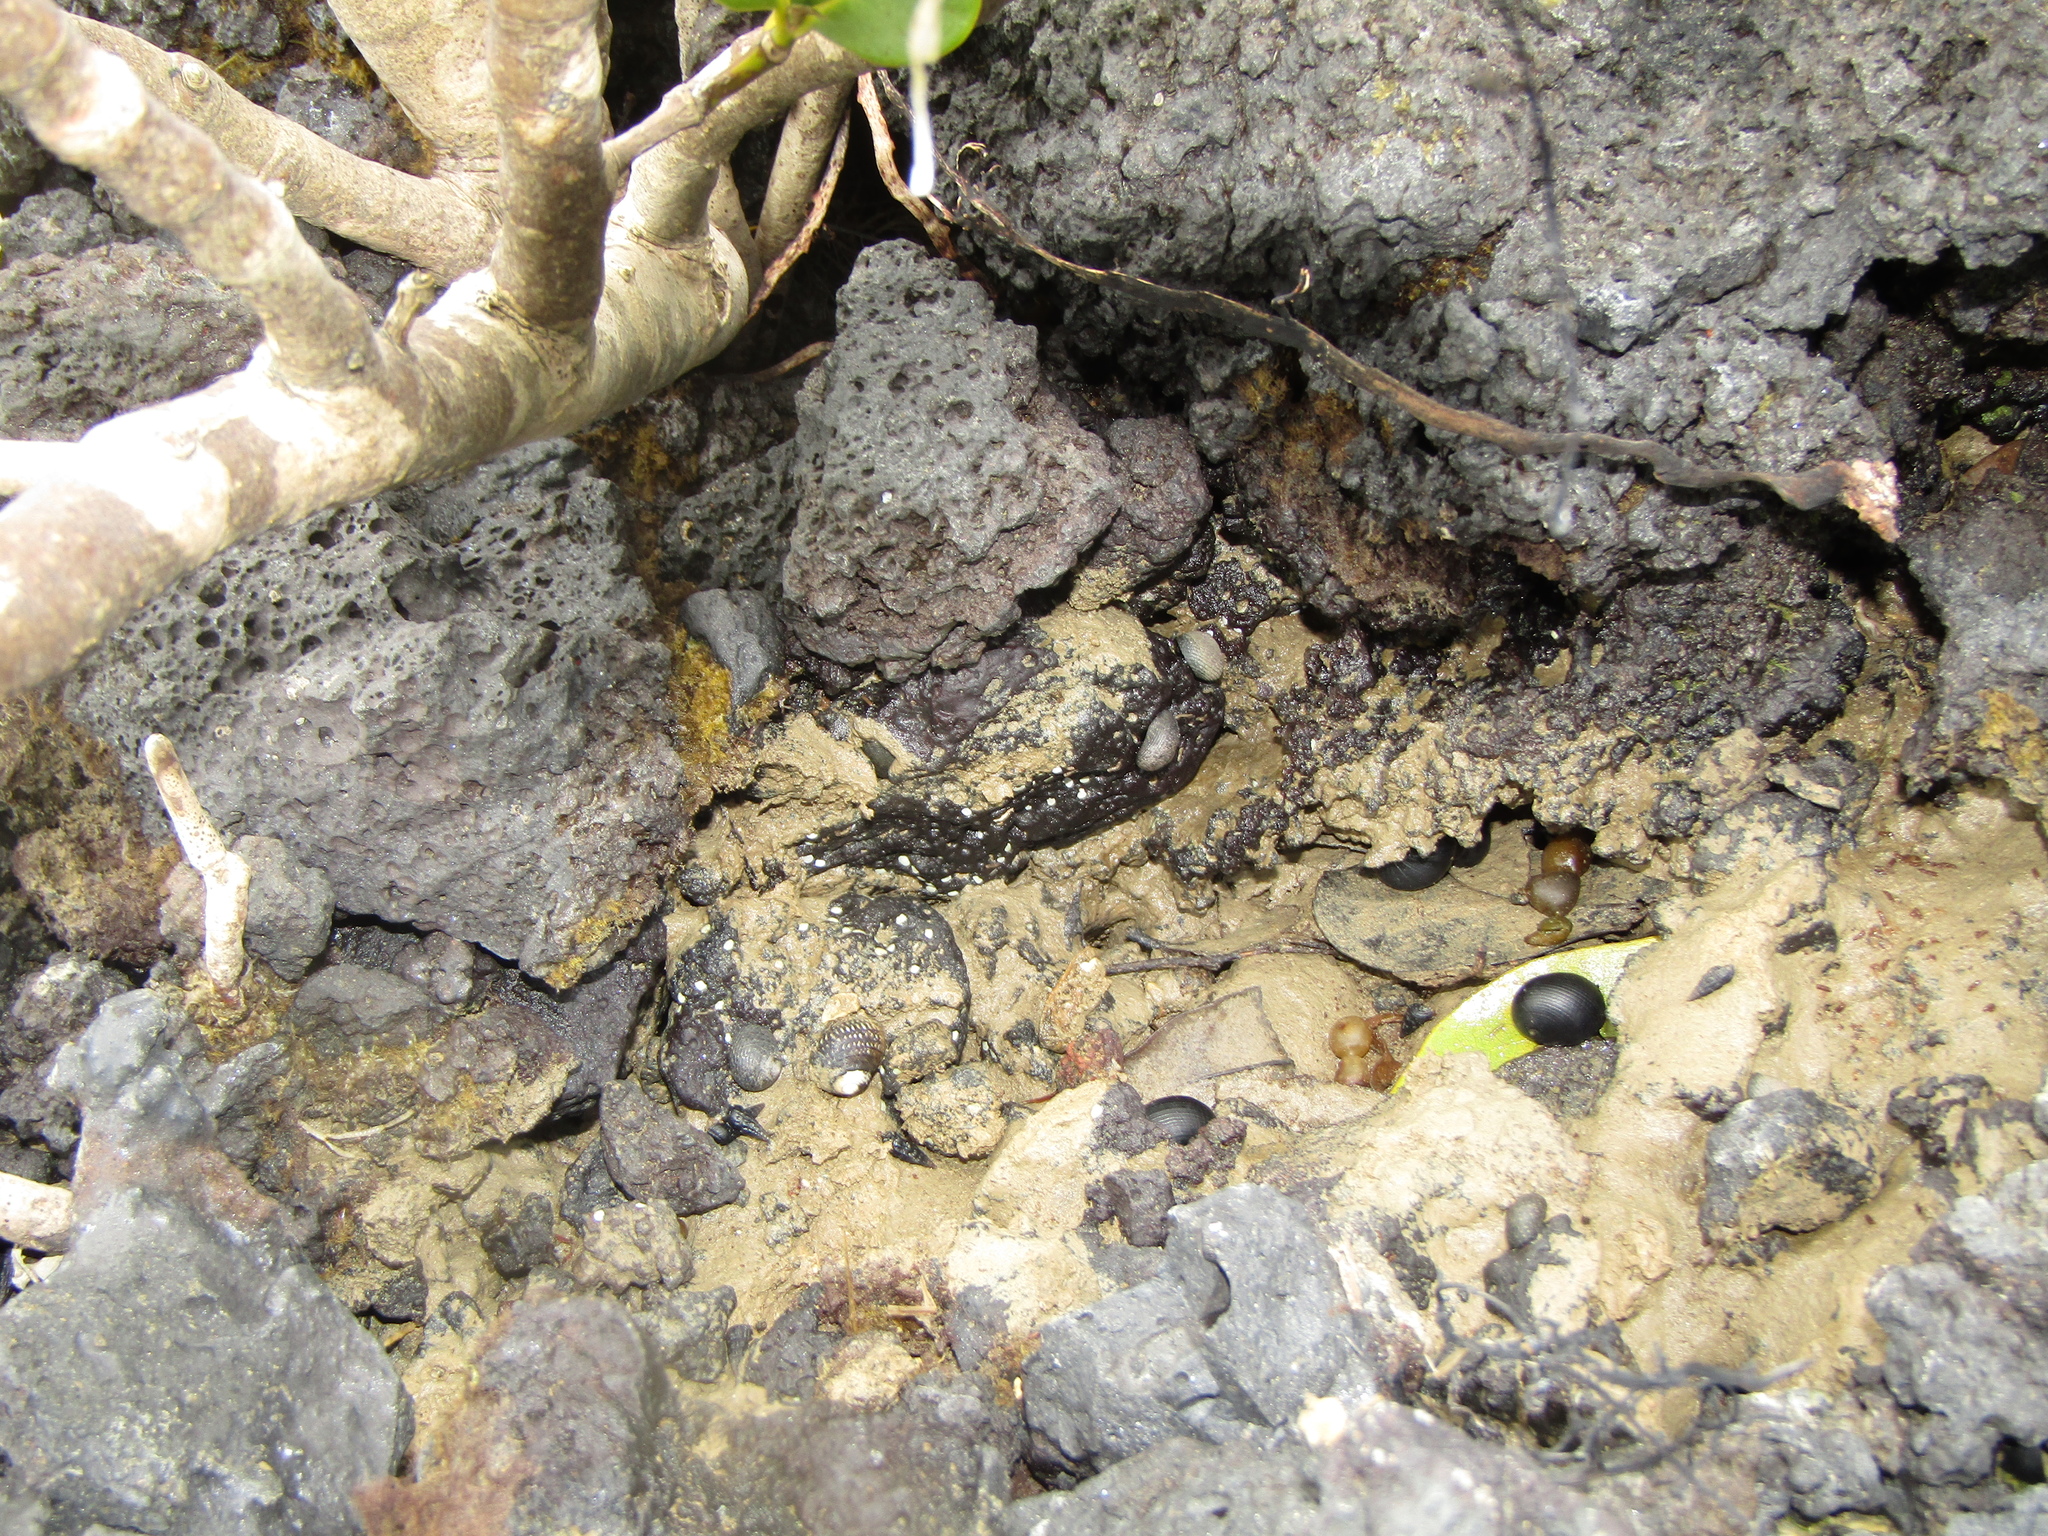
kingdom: Animalia
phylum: Mollusca
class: Gastropoda
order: Cycloneritida
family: Neritidae
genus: Nerita
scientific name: Nerita melanotragus
